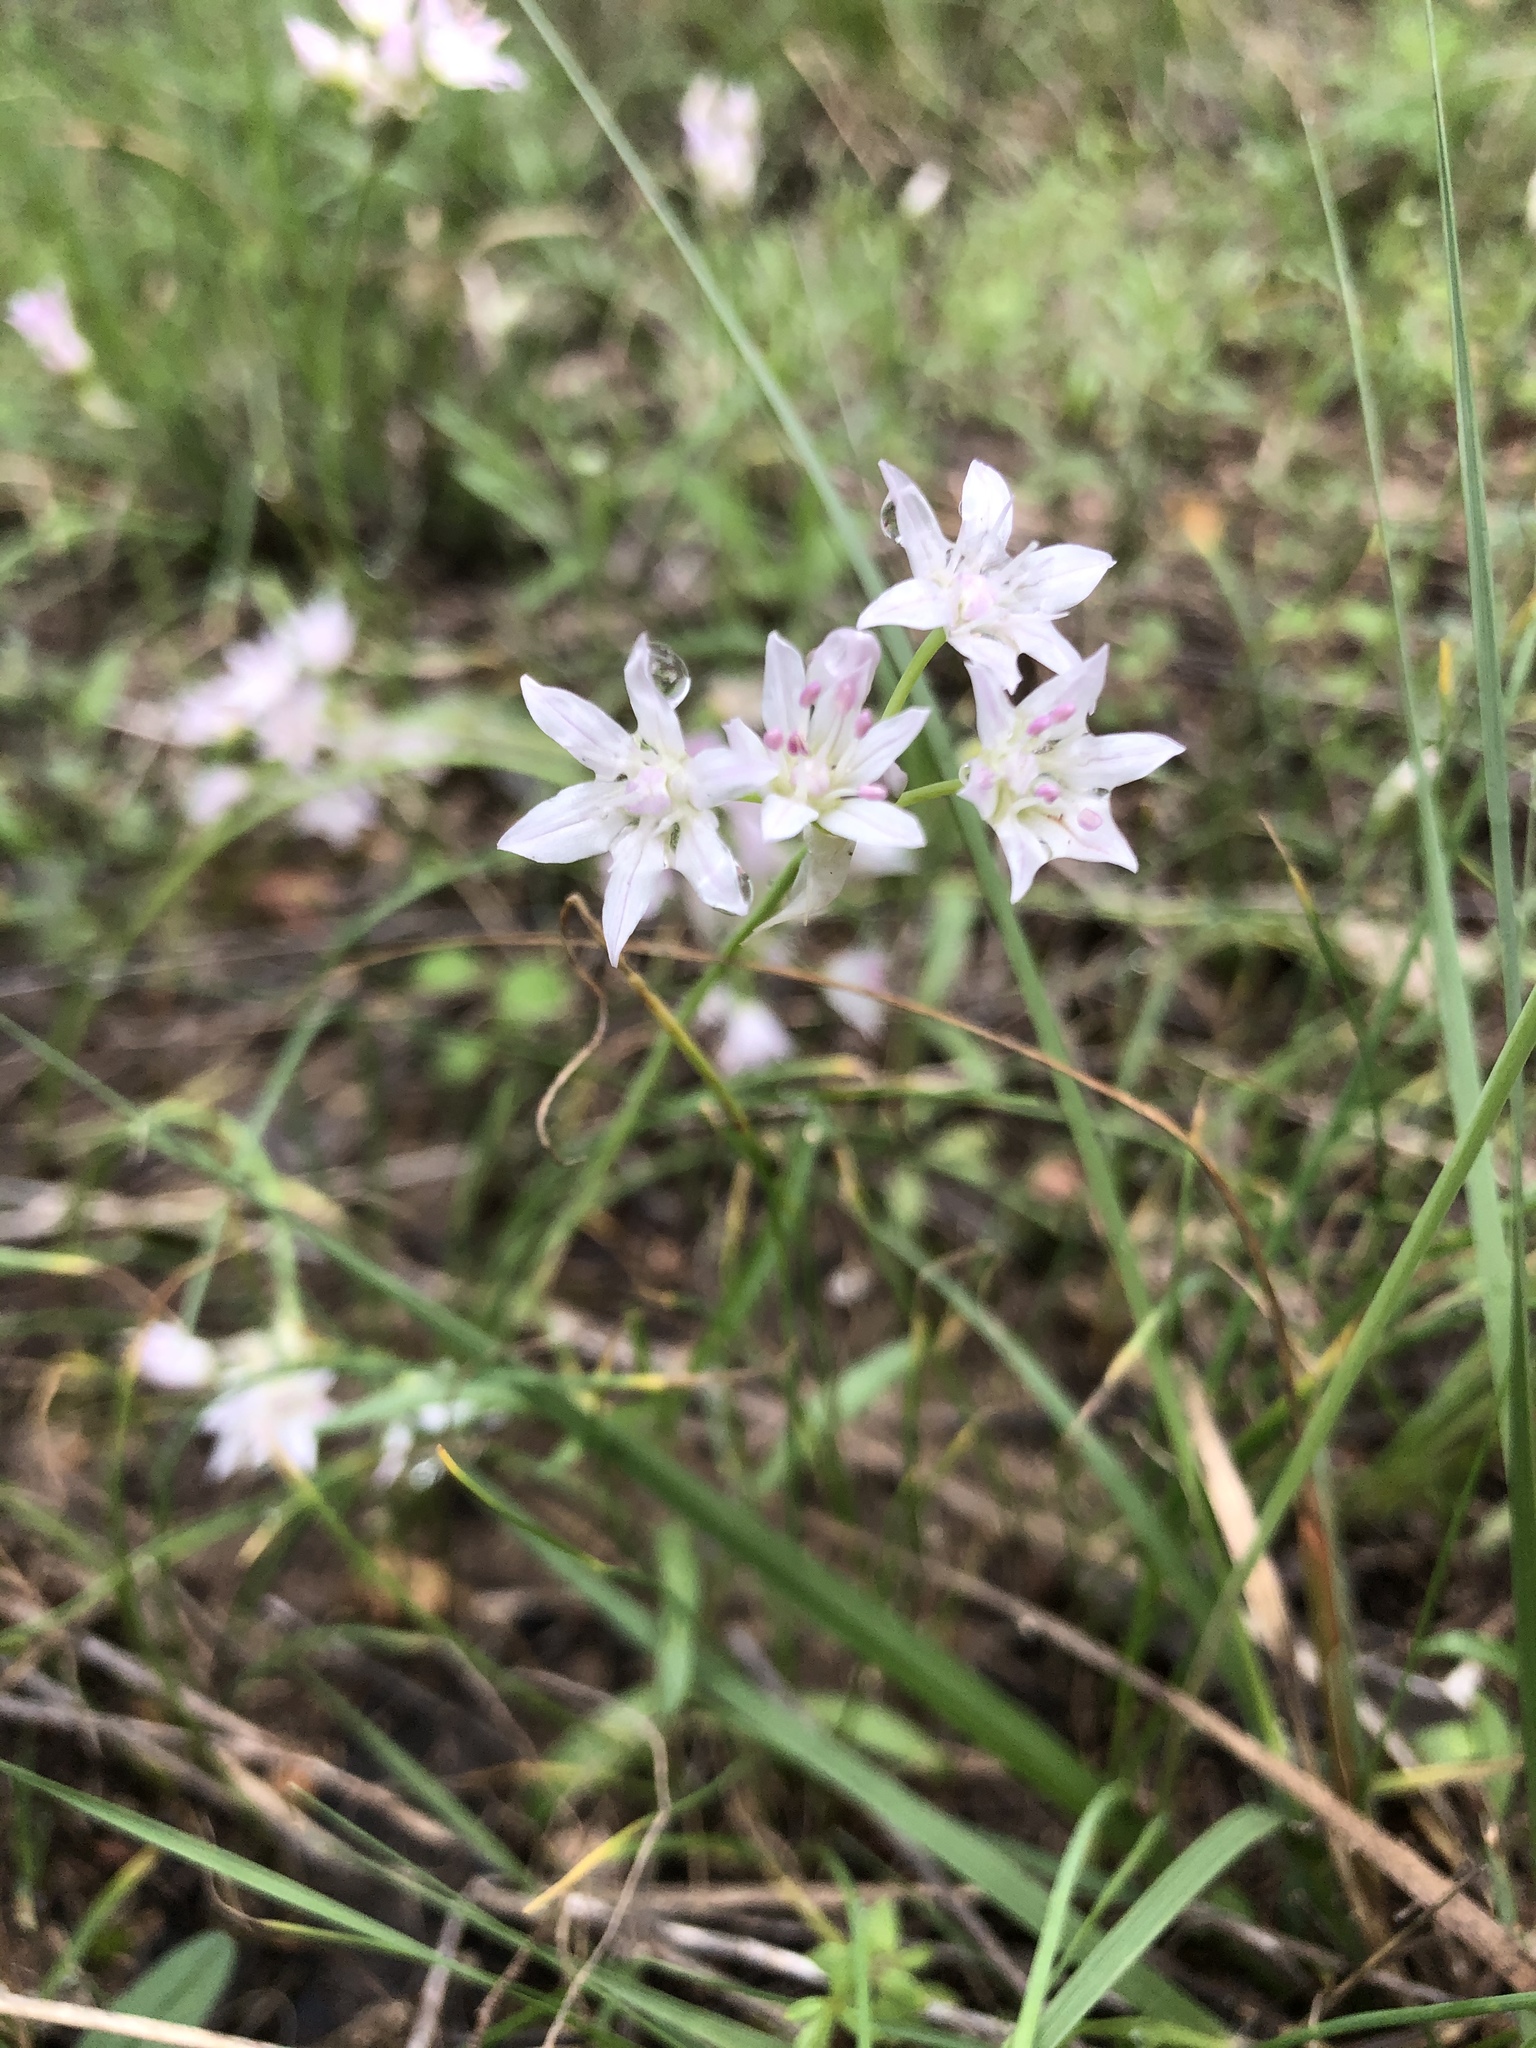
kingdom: Plantae
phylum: Tracheophyta
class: Liliopsida
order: Asparagales
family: Amaryllidaceae
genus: Allium
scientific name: Allium drummondii
